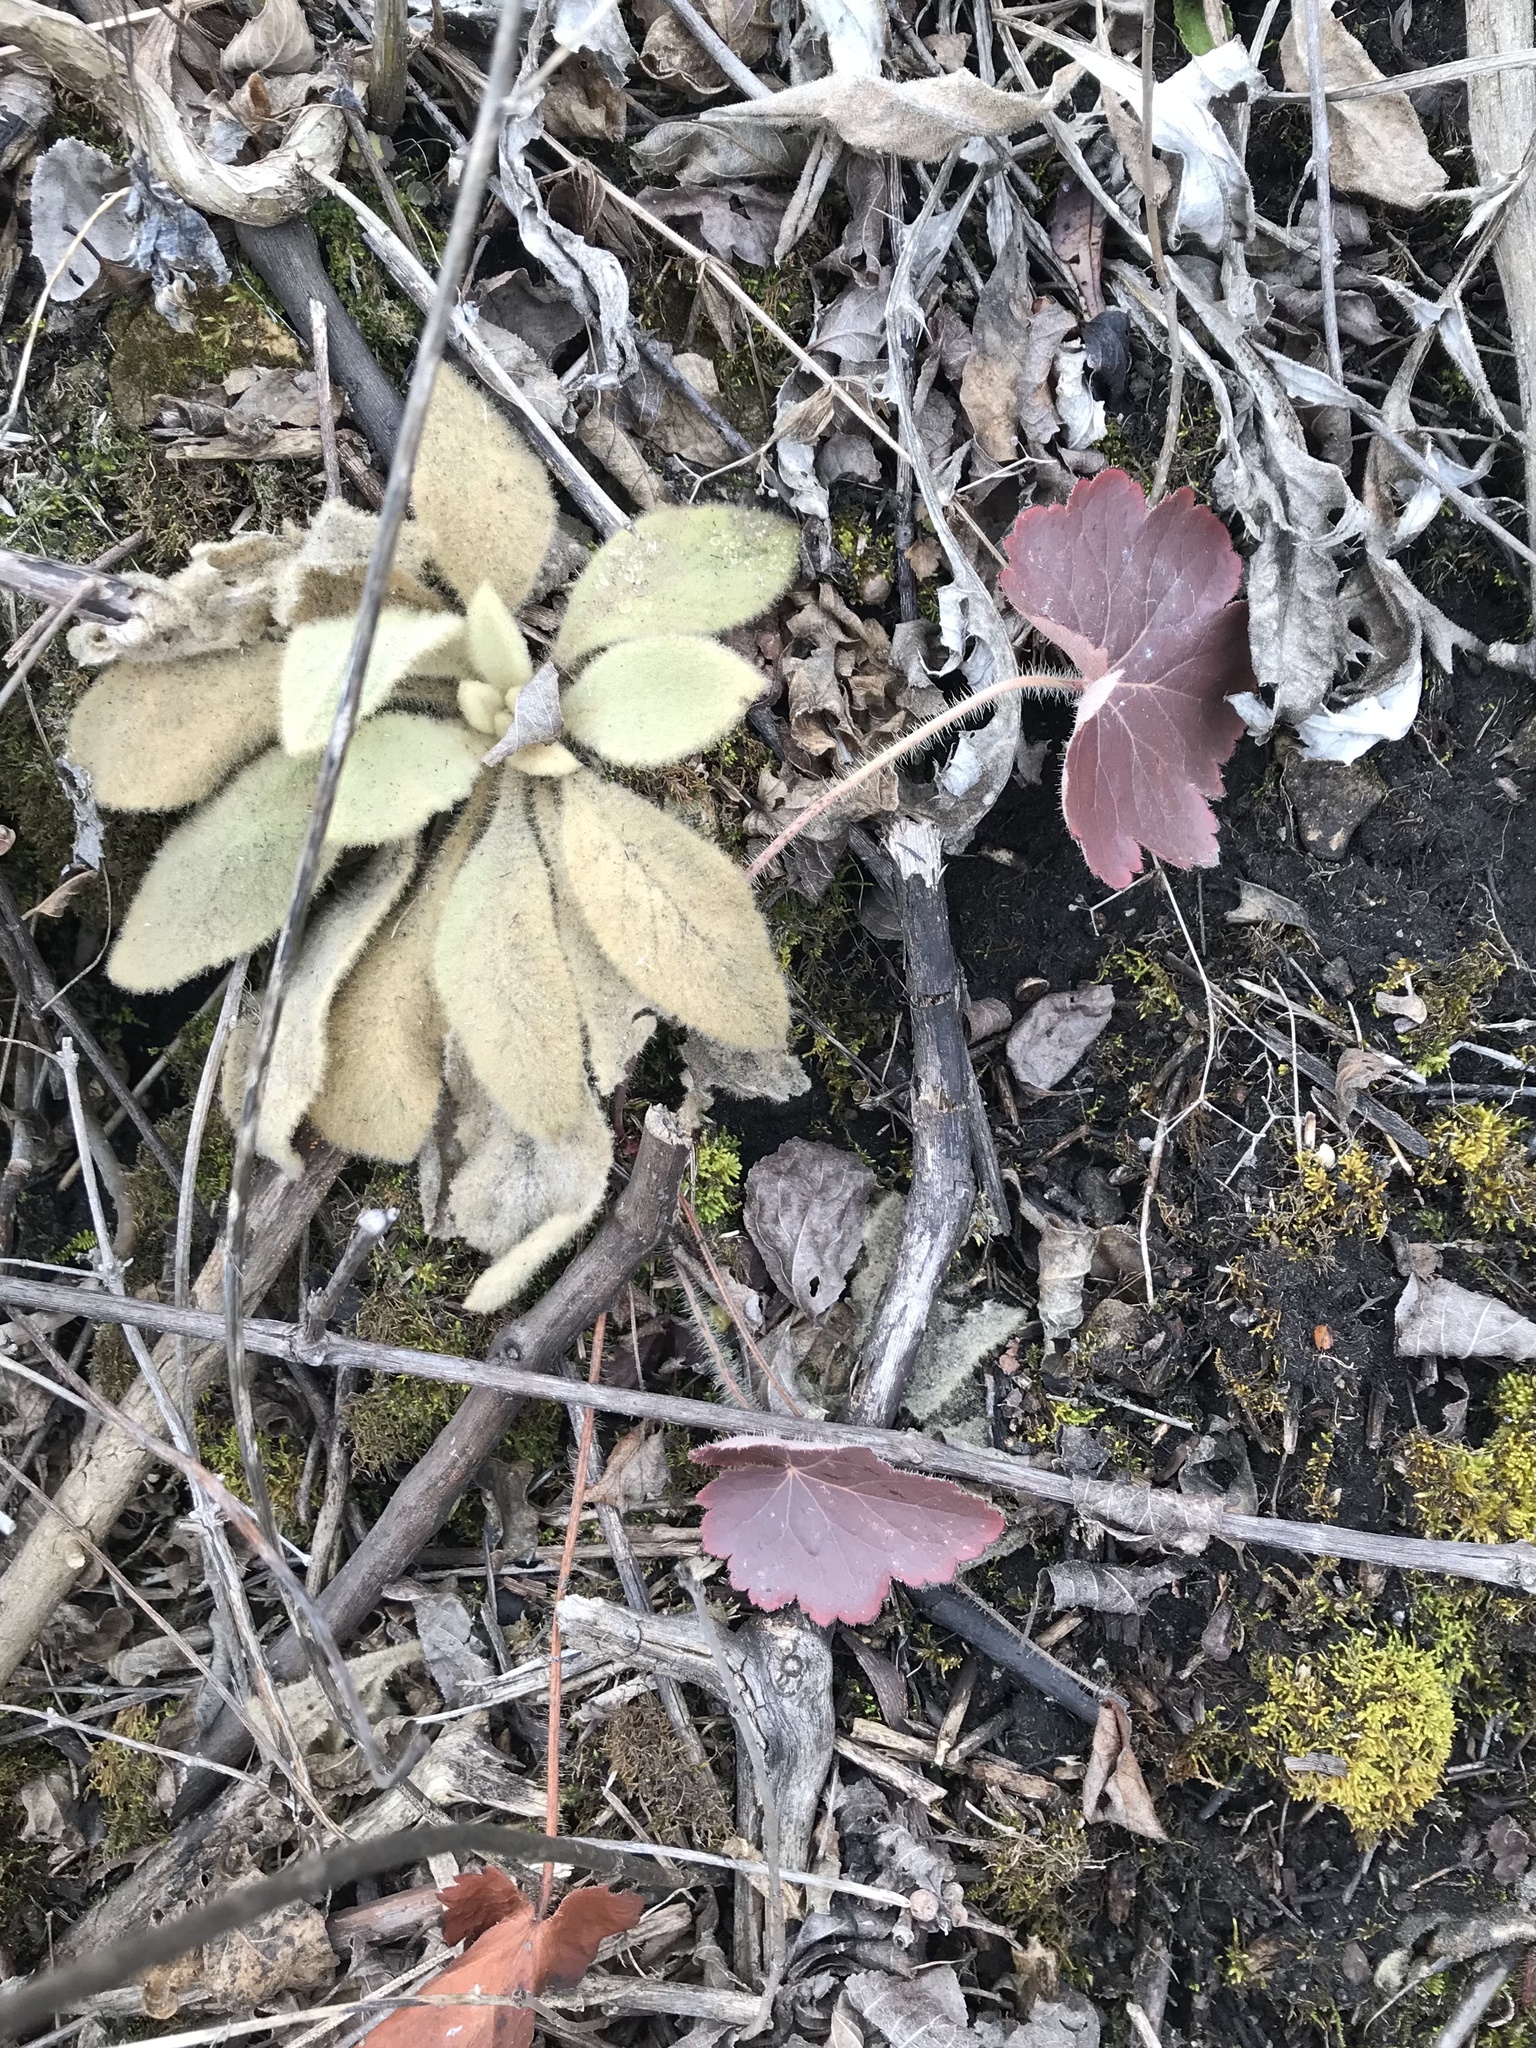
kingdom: Plantae
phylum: Tracheophyta
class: Magnoliopsida
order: Saxifragales
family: Saxifragaceae
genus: Heuchera
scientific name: Heuchera richardsonii
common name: Richardson's alumroot
